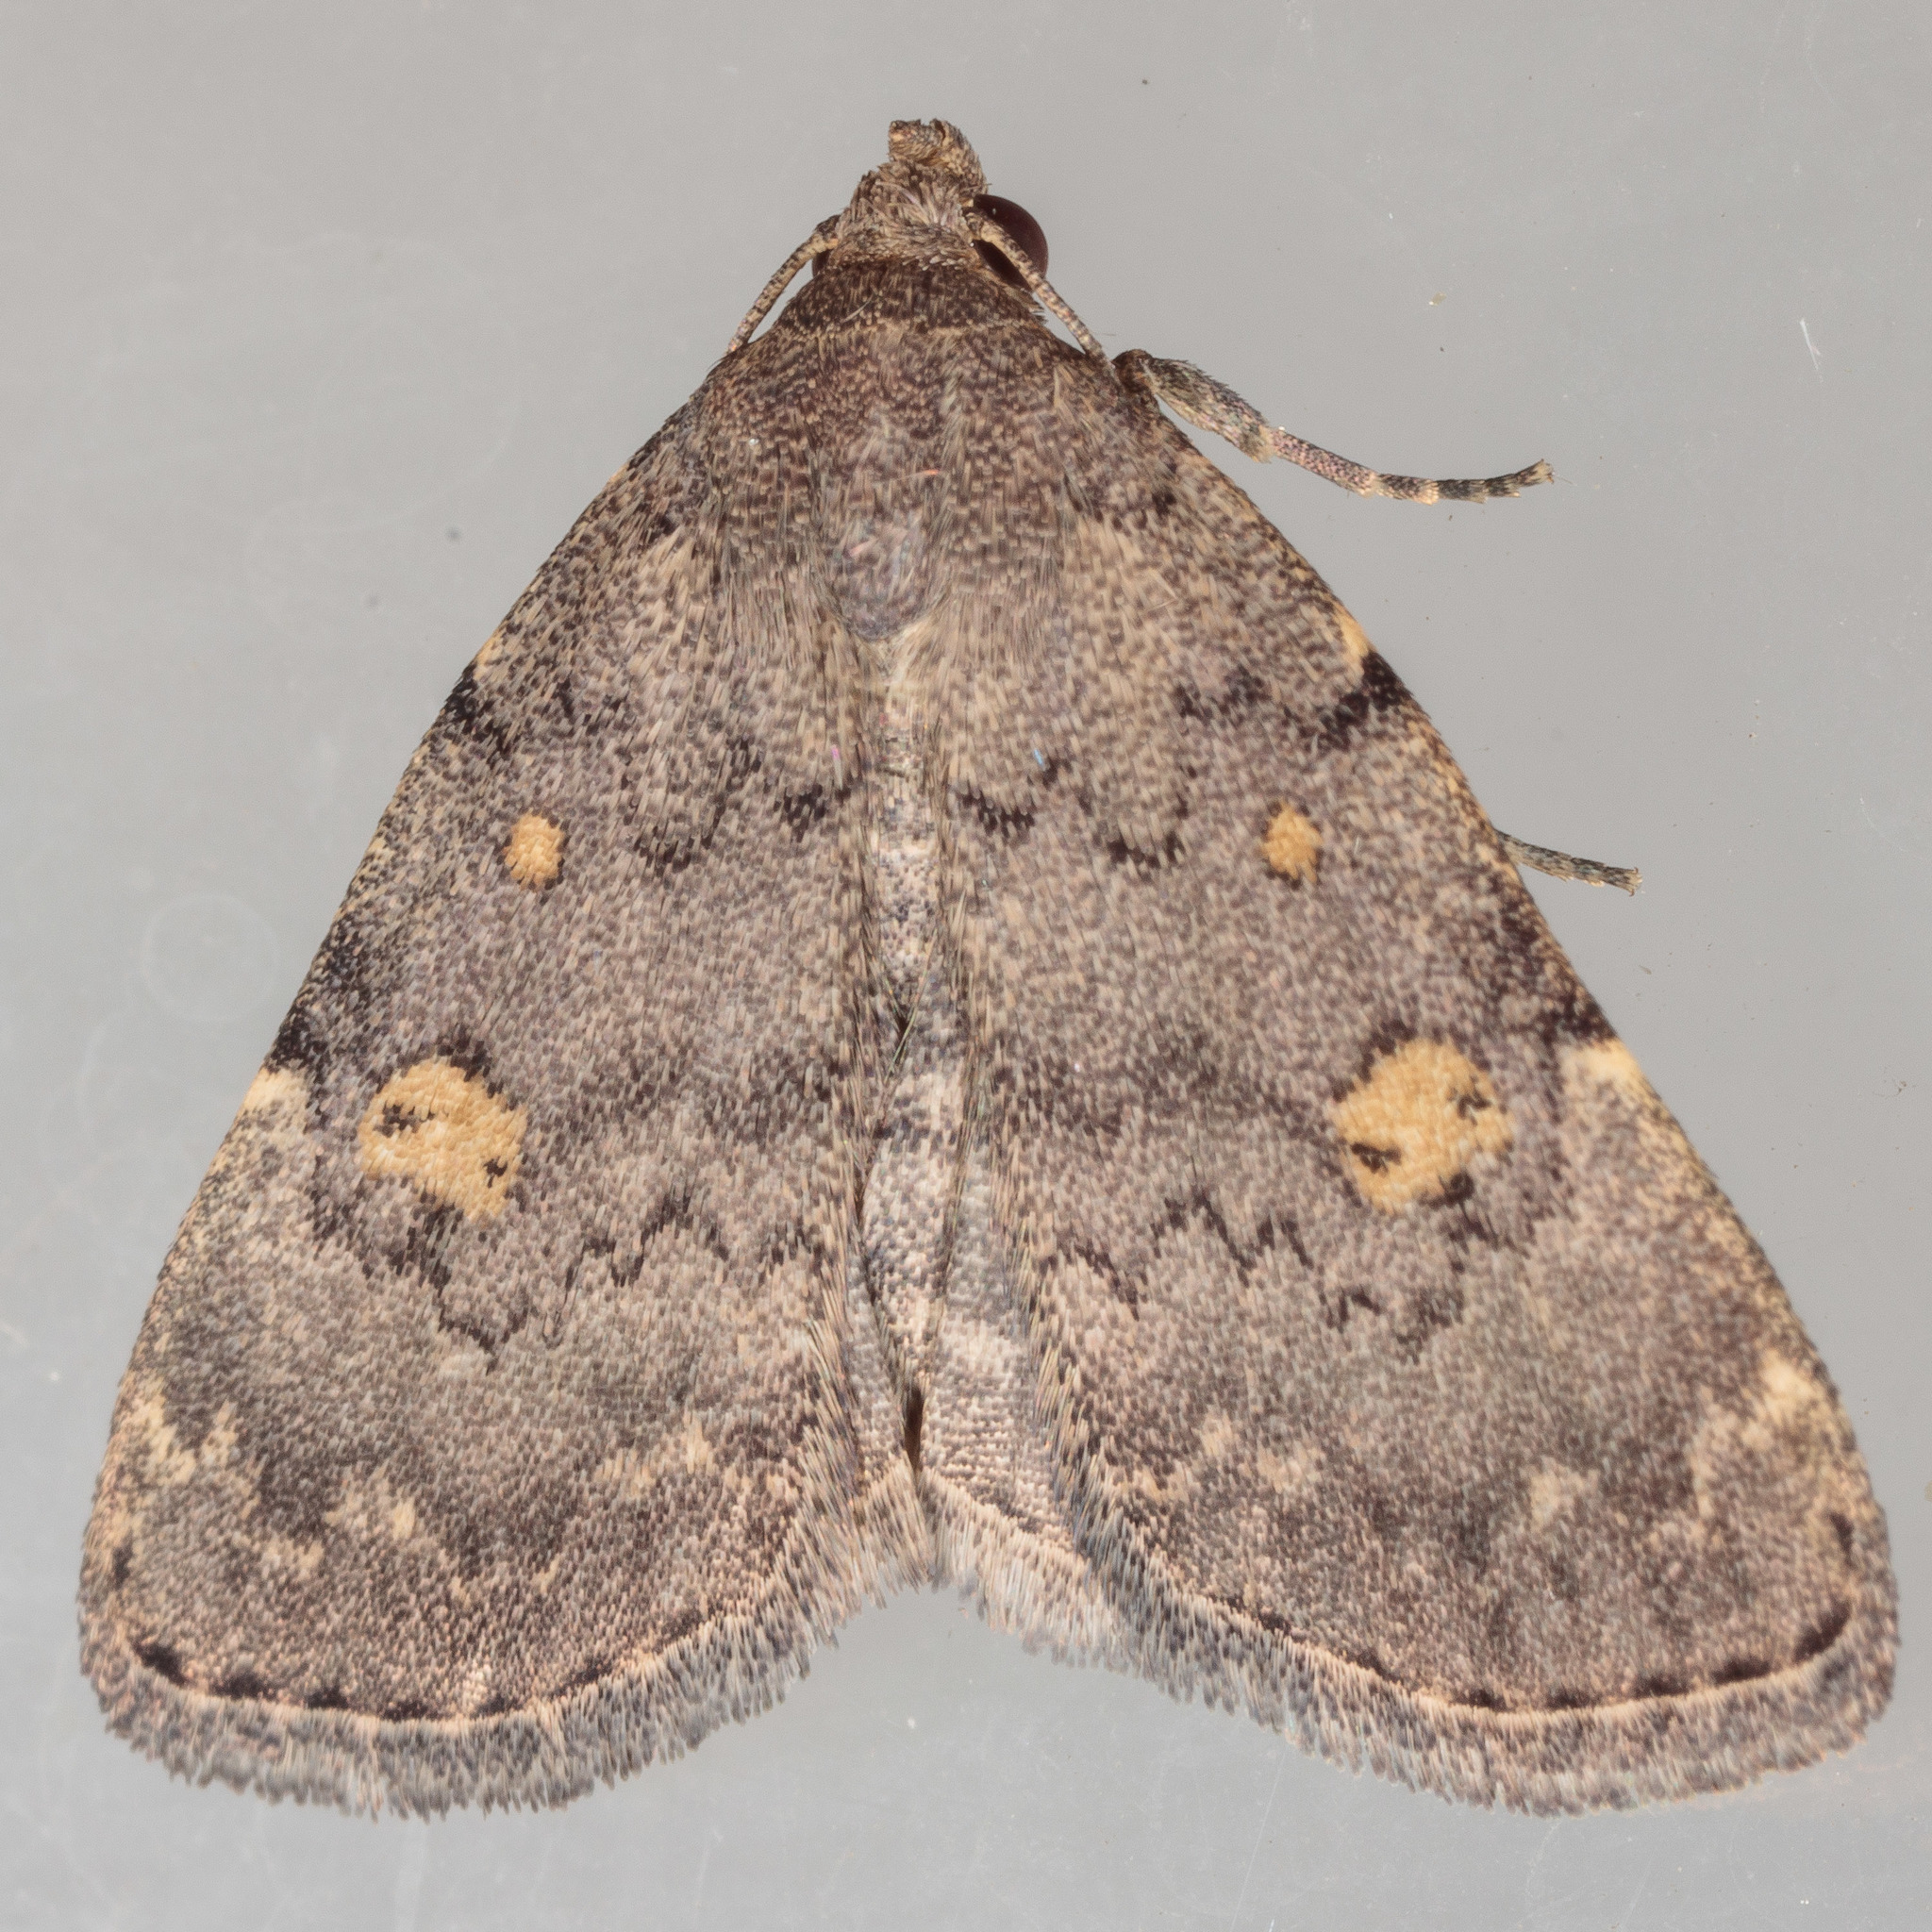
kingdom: Animalia
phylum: Arthropoda
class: Insecta
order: Lepidoptera
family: Erebidae
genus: Idia
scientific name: Idia aemula
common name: Common idia moth
